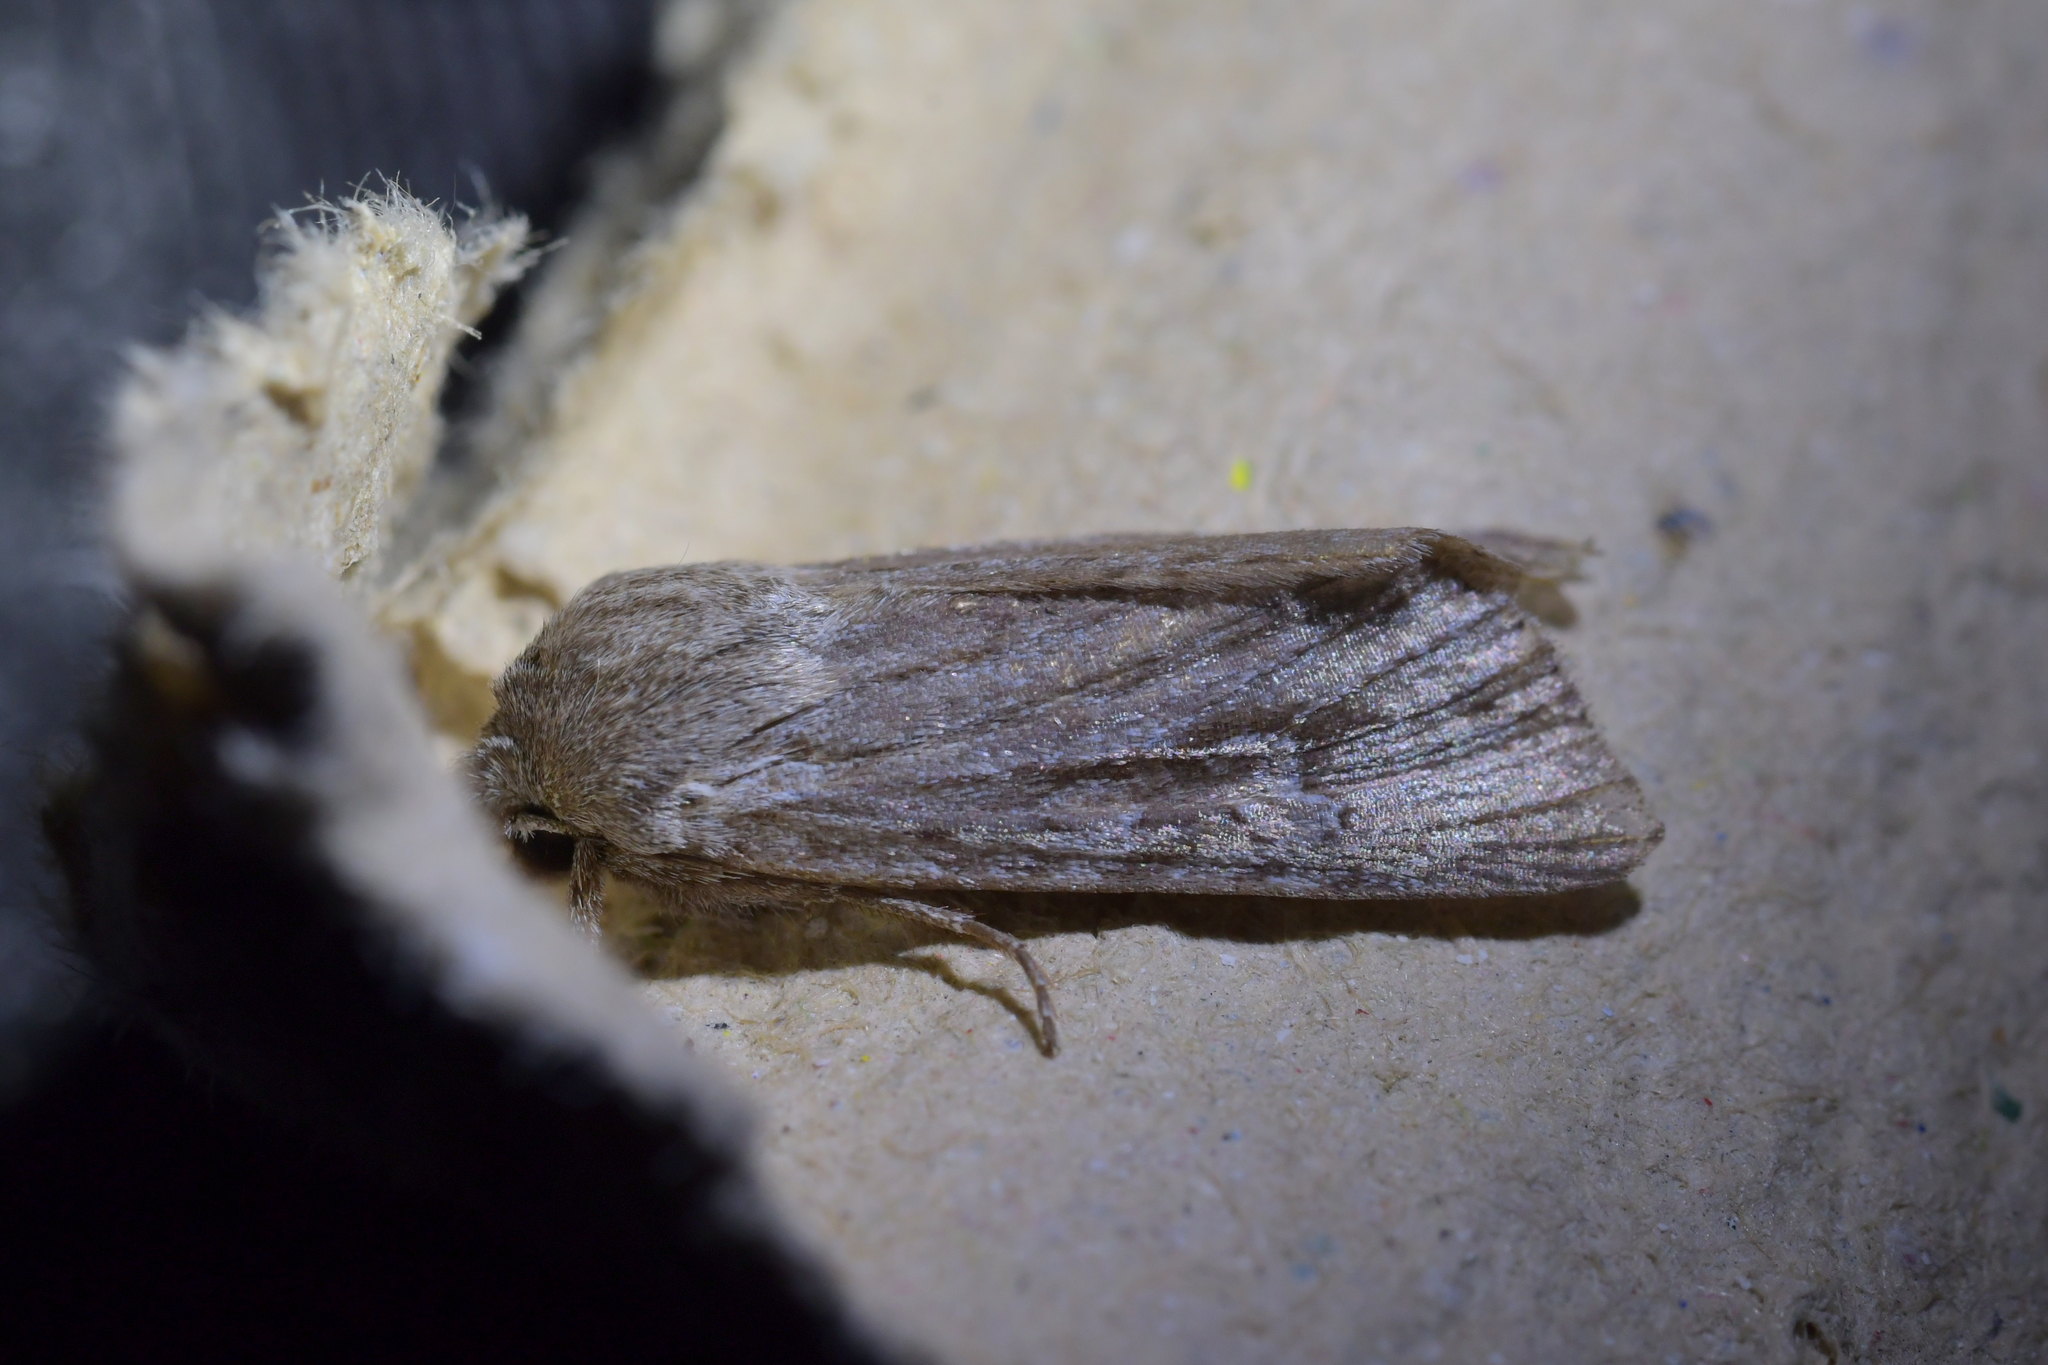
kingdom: Animalia
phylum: Arthropoda
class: Insecta
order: Lepidoptera
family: Noctuidae
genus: Physetica
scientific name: Physetica sequens
